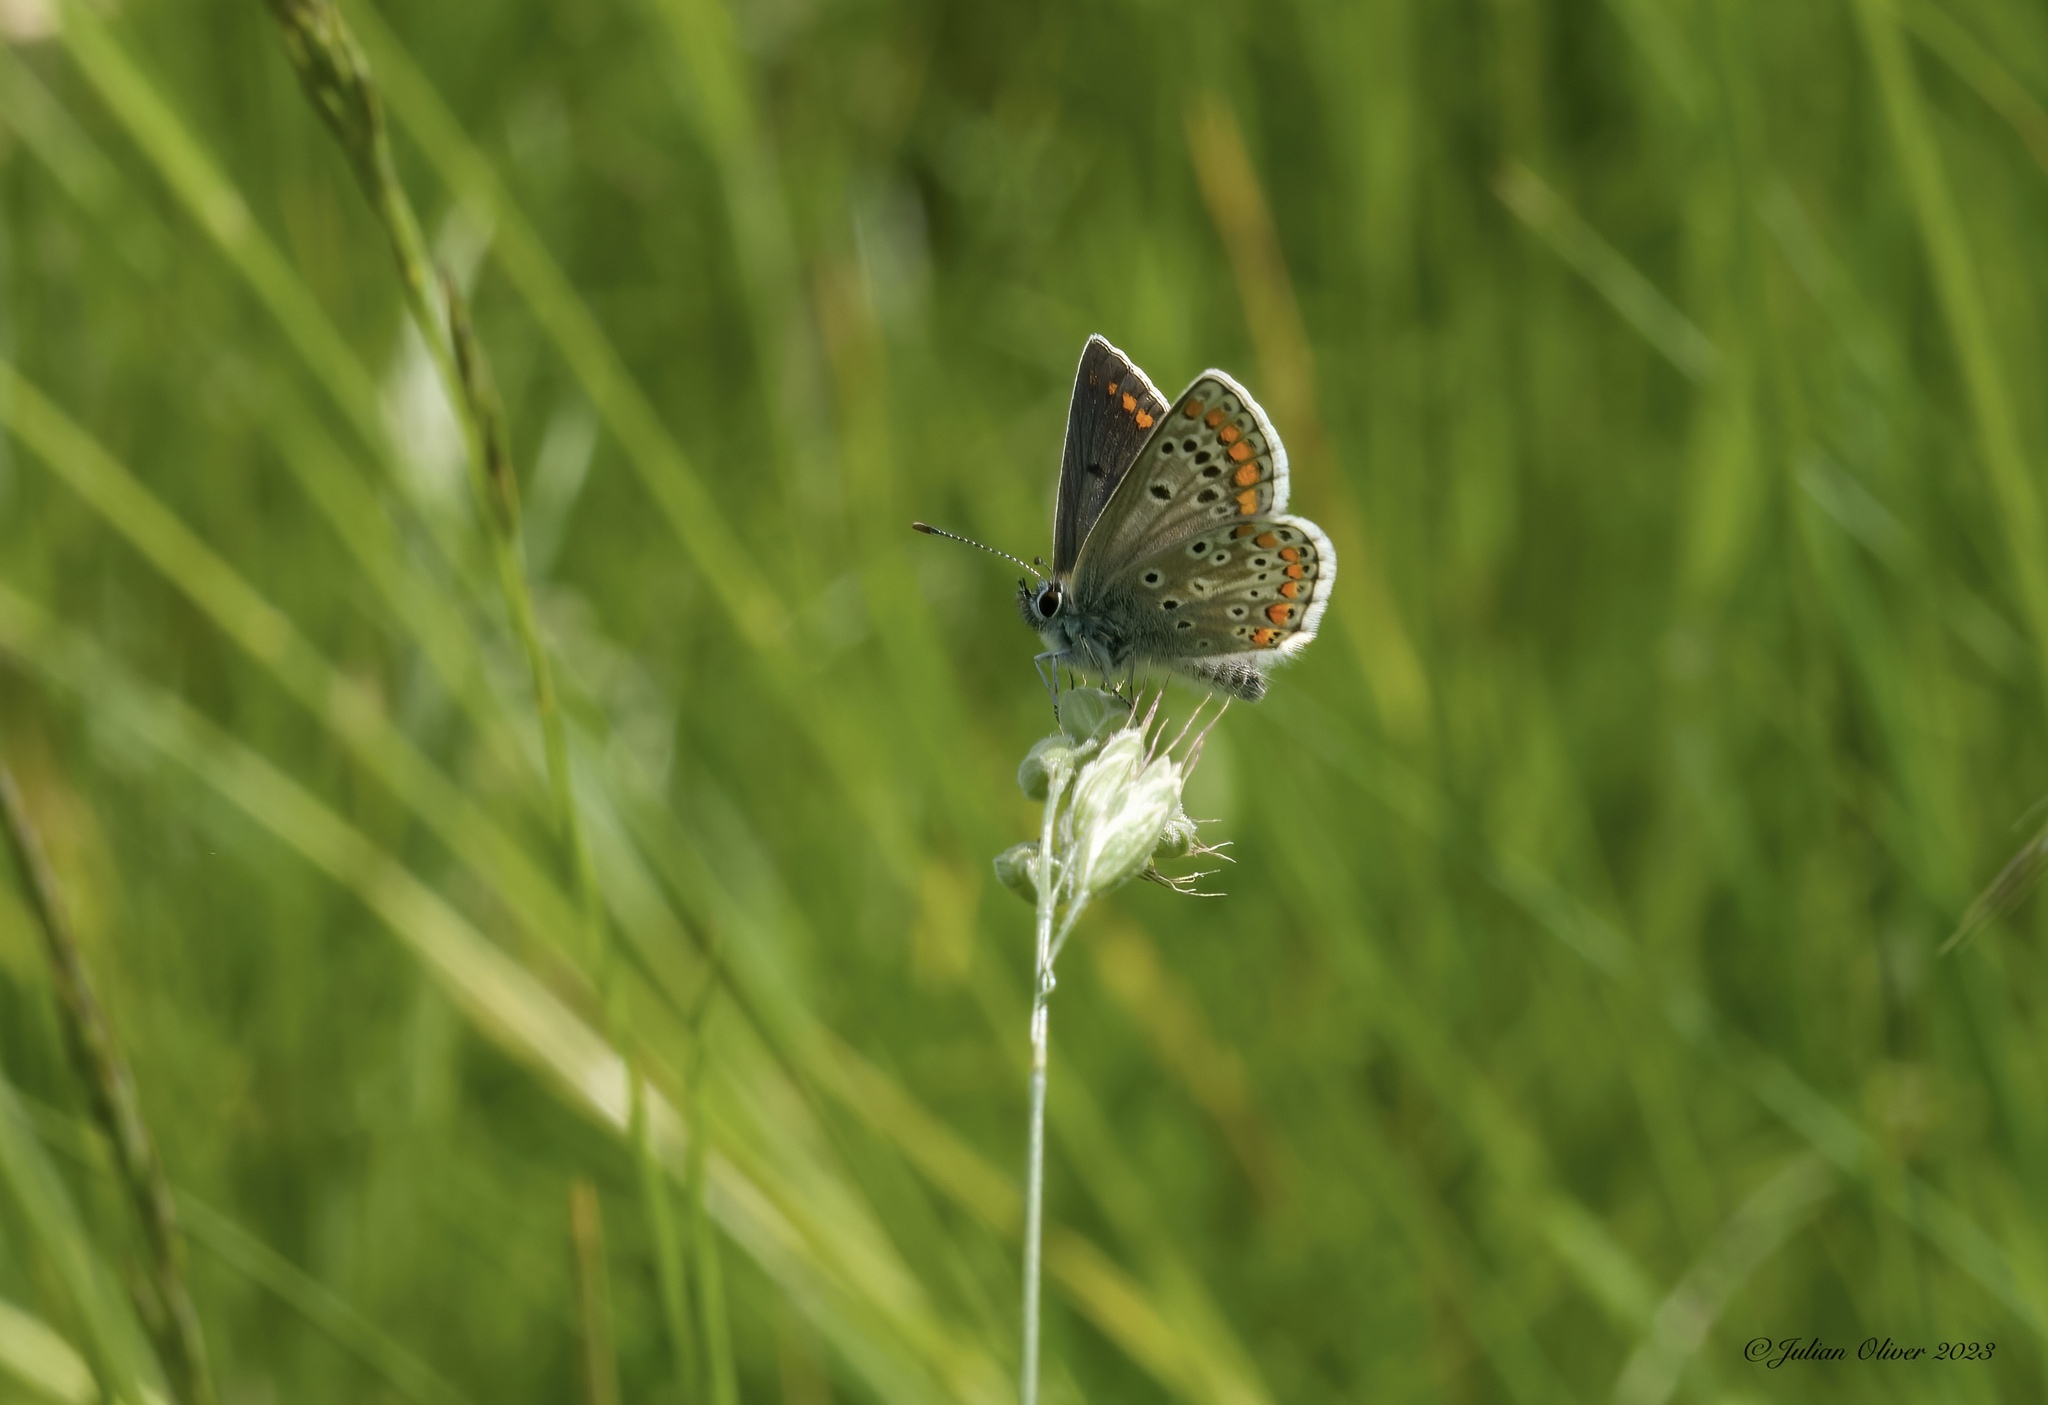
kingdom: Animalia
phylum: Arthropoda
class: Insecta
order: Lepidoptera
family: Lycaenidae
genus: Aricia
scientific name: Aricia agestis
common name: Brown argus
